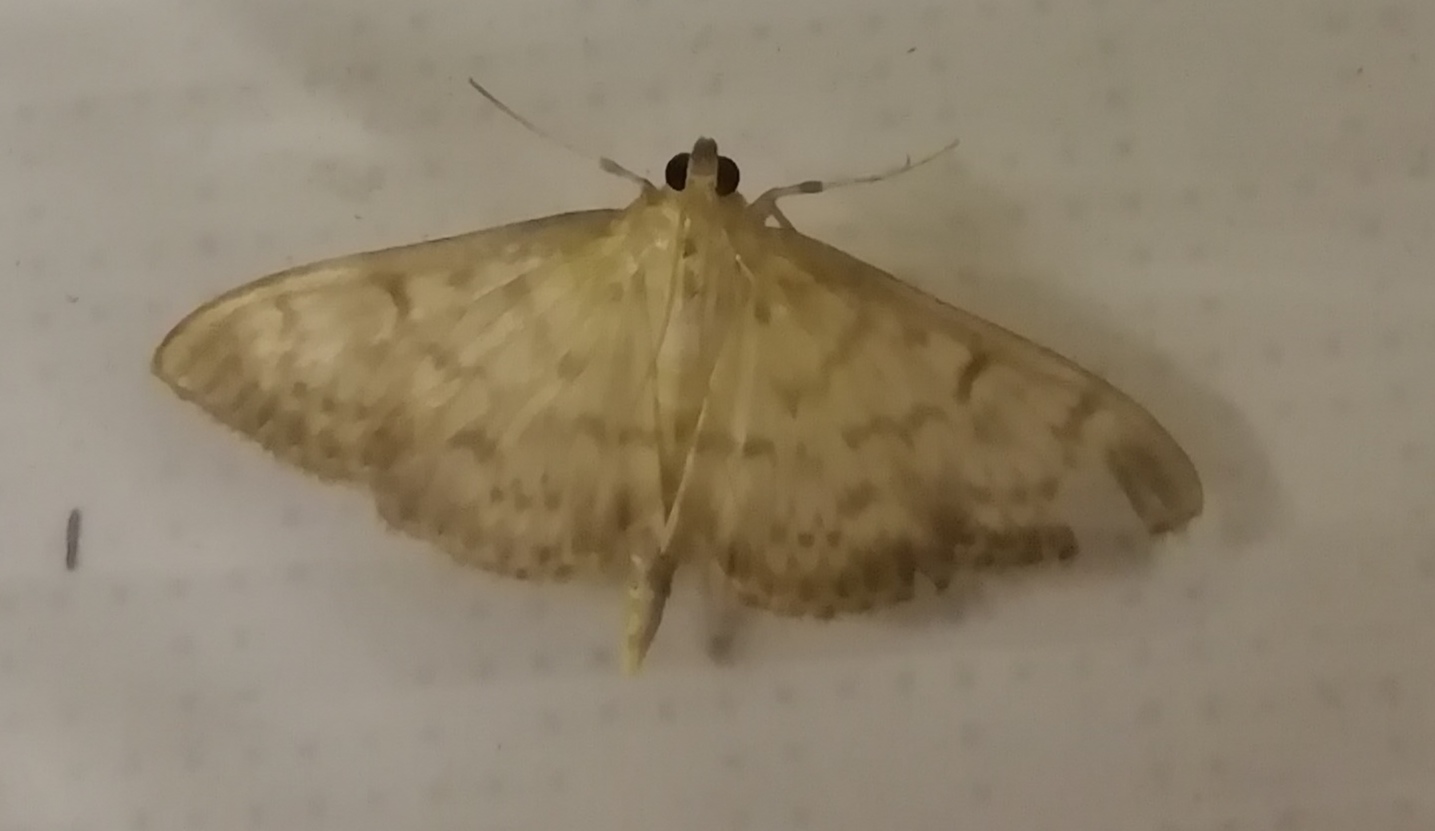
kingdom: Animalia
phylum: Arthropoda
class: Insecta
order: Lepidoptera
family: Crambidae
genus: Patania
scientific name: Patania ruralis
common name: Mother of pearl
